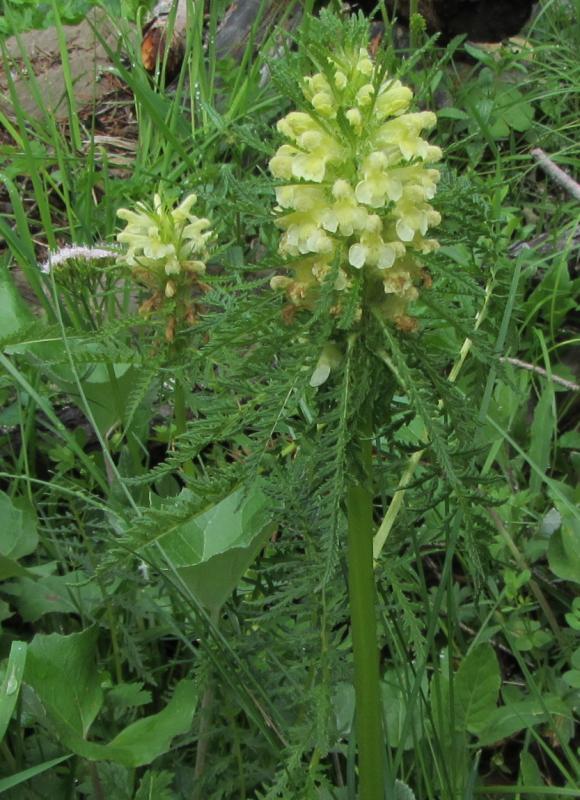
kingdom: Plantae
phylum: Tracheophyta
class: Magnoliopsida
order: Lamiales
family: Orobanchaceae
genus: Pedicularis
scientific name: Pedicularis foliosa
